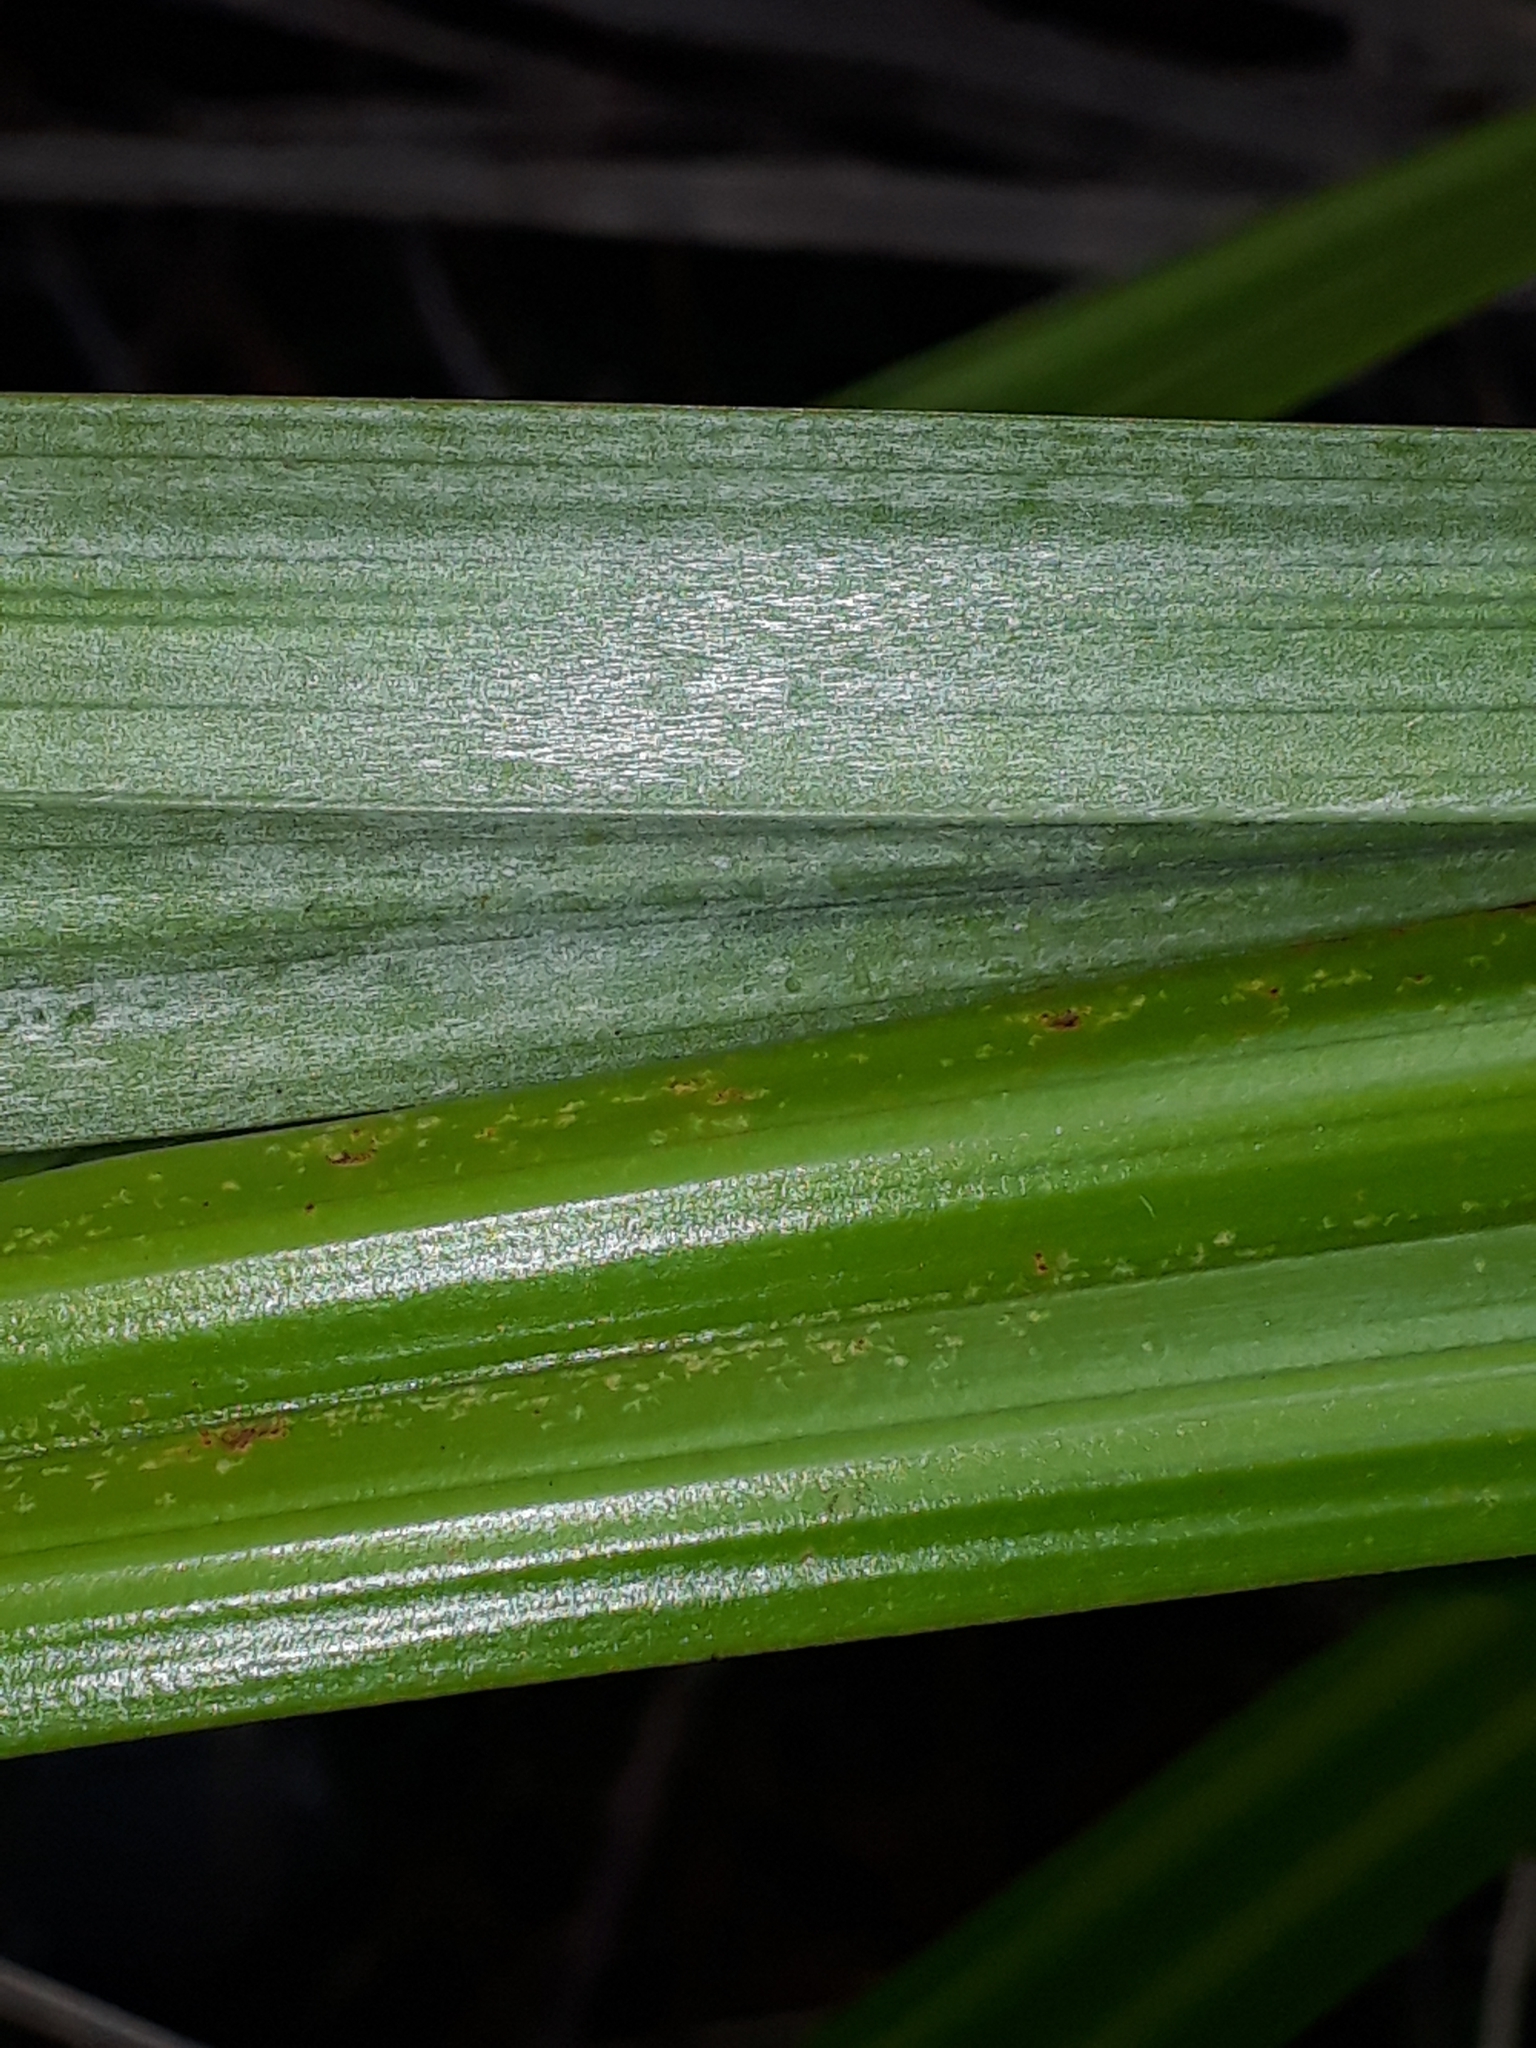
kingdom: Plantae
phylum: Tracheophyta
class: Liliopsida
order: Asparagales
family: Asteliaceae
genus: Astelia
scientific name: Astelia trinervia
